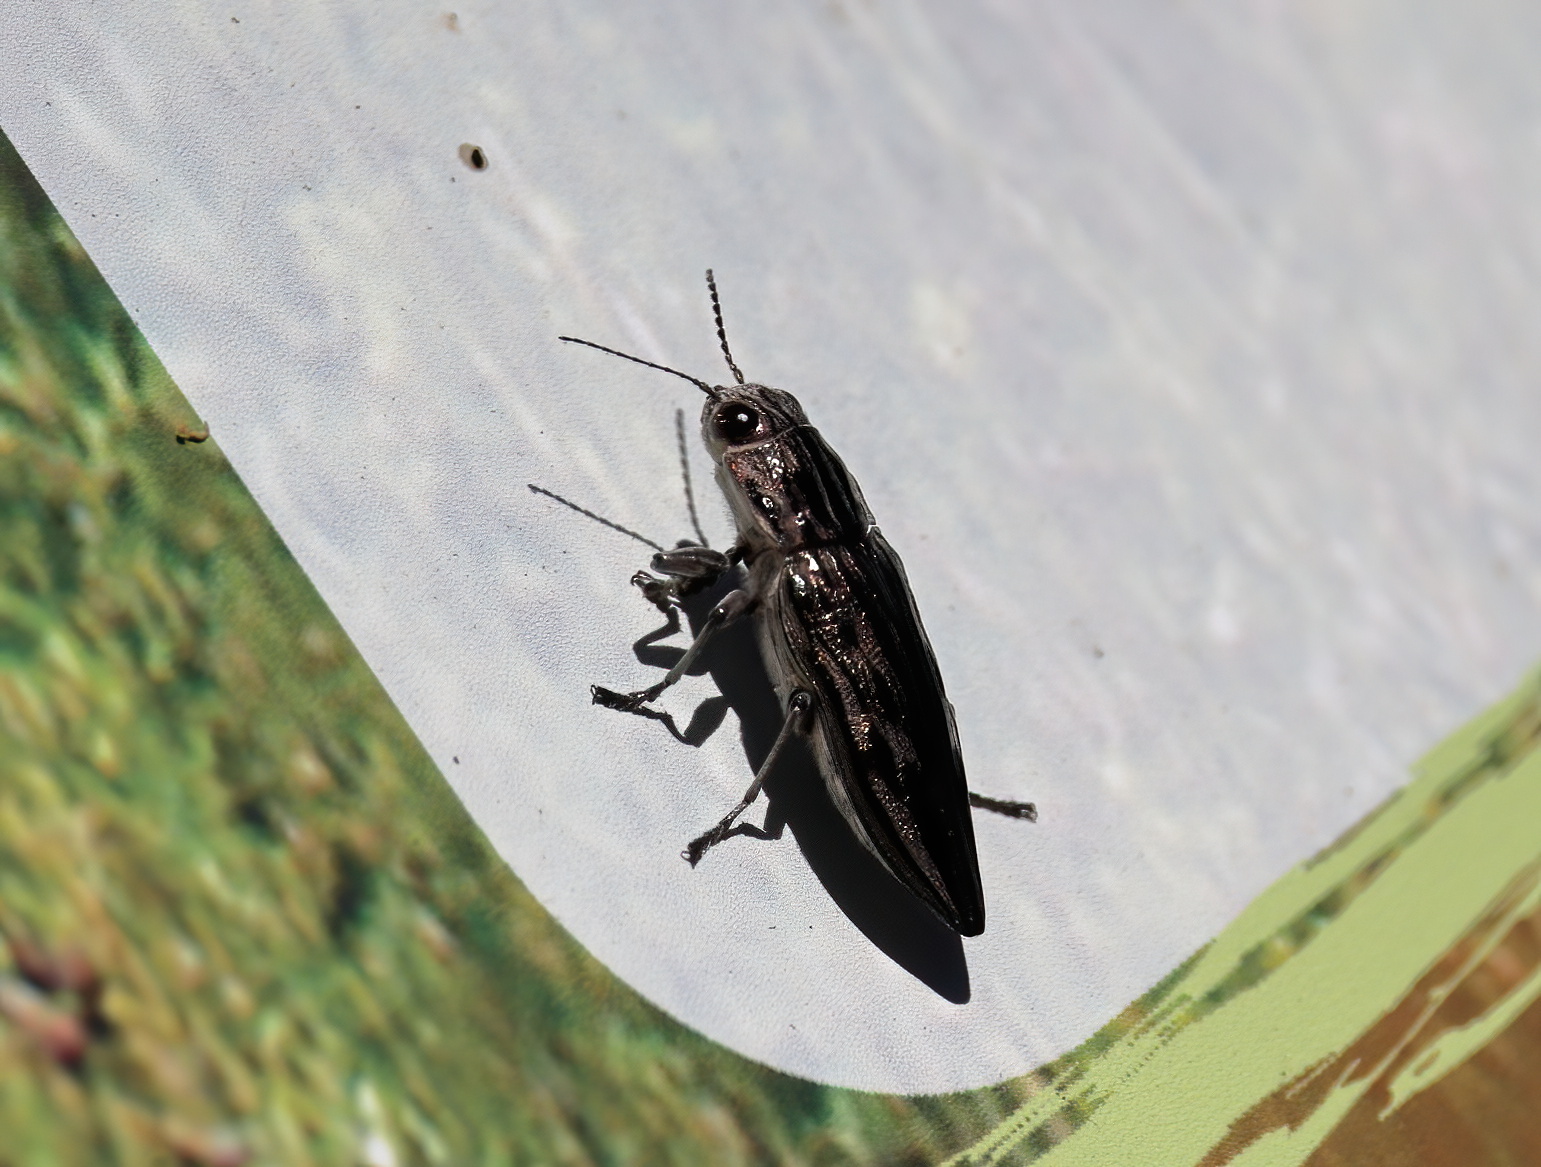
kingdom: Animalia
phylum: Arthropoda
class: Insecta
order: Coleoptera
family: Buprestidae
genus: Chalcophora
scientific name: Chalcophora georgiana
